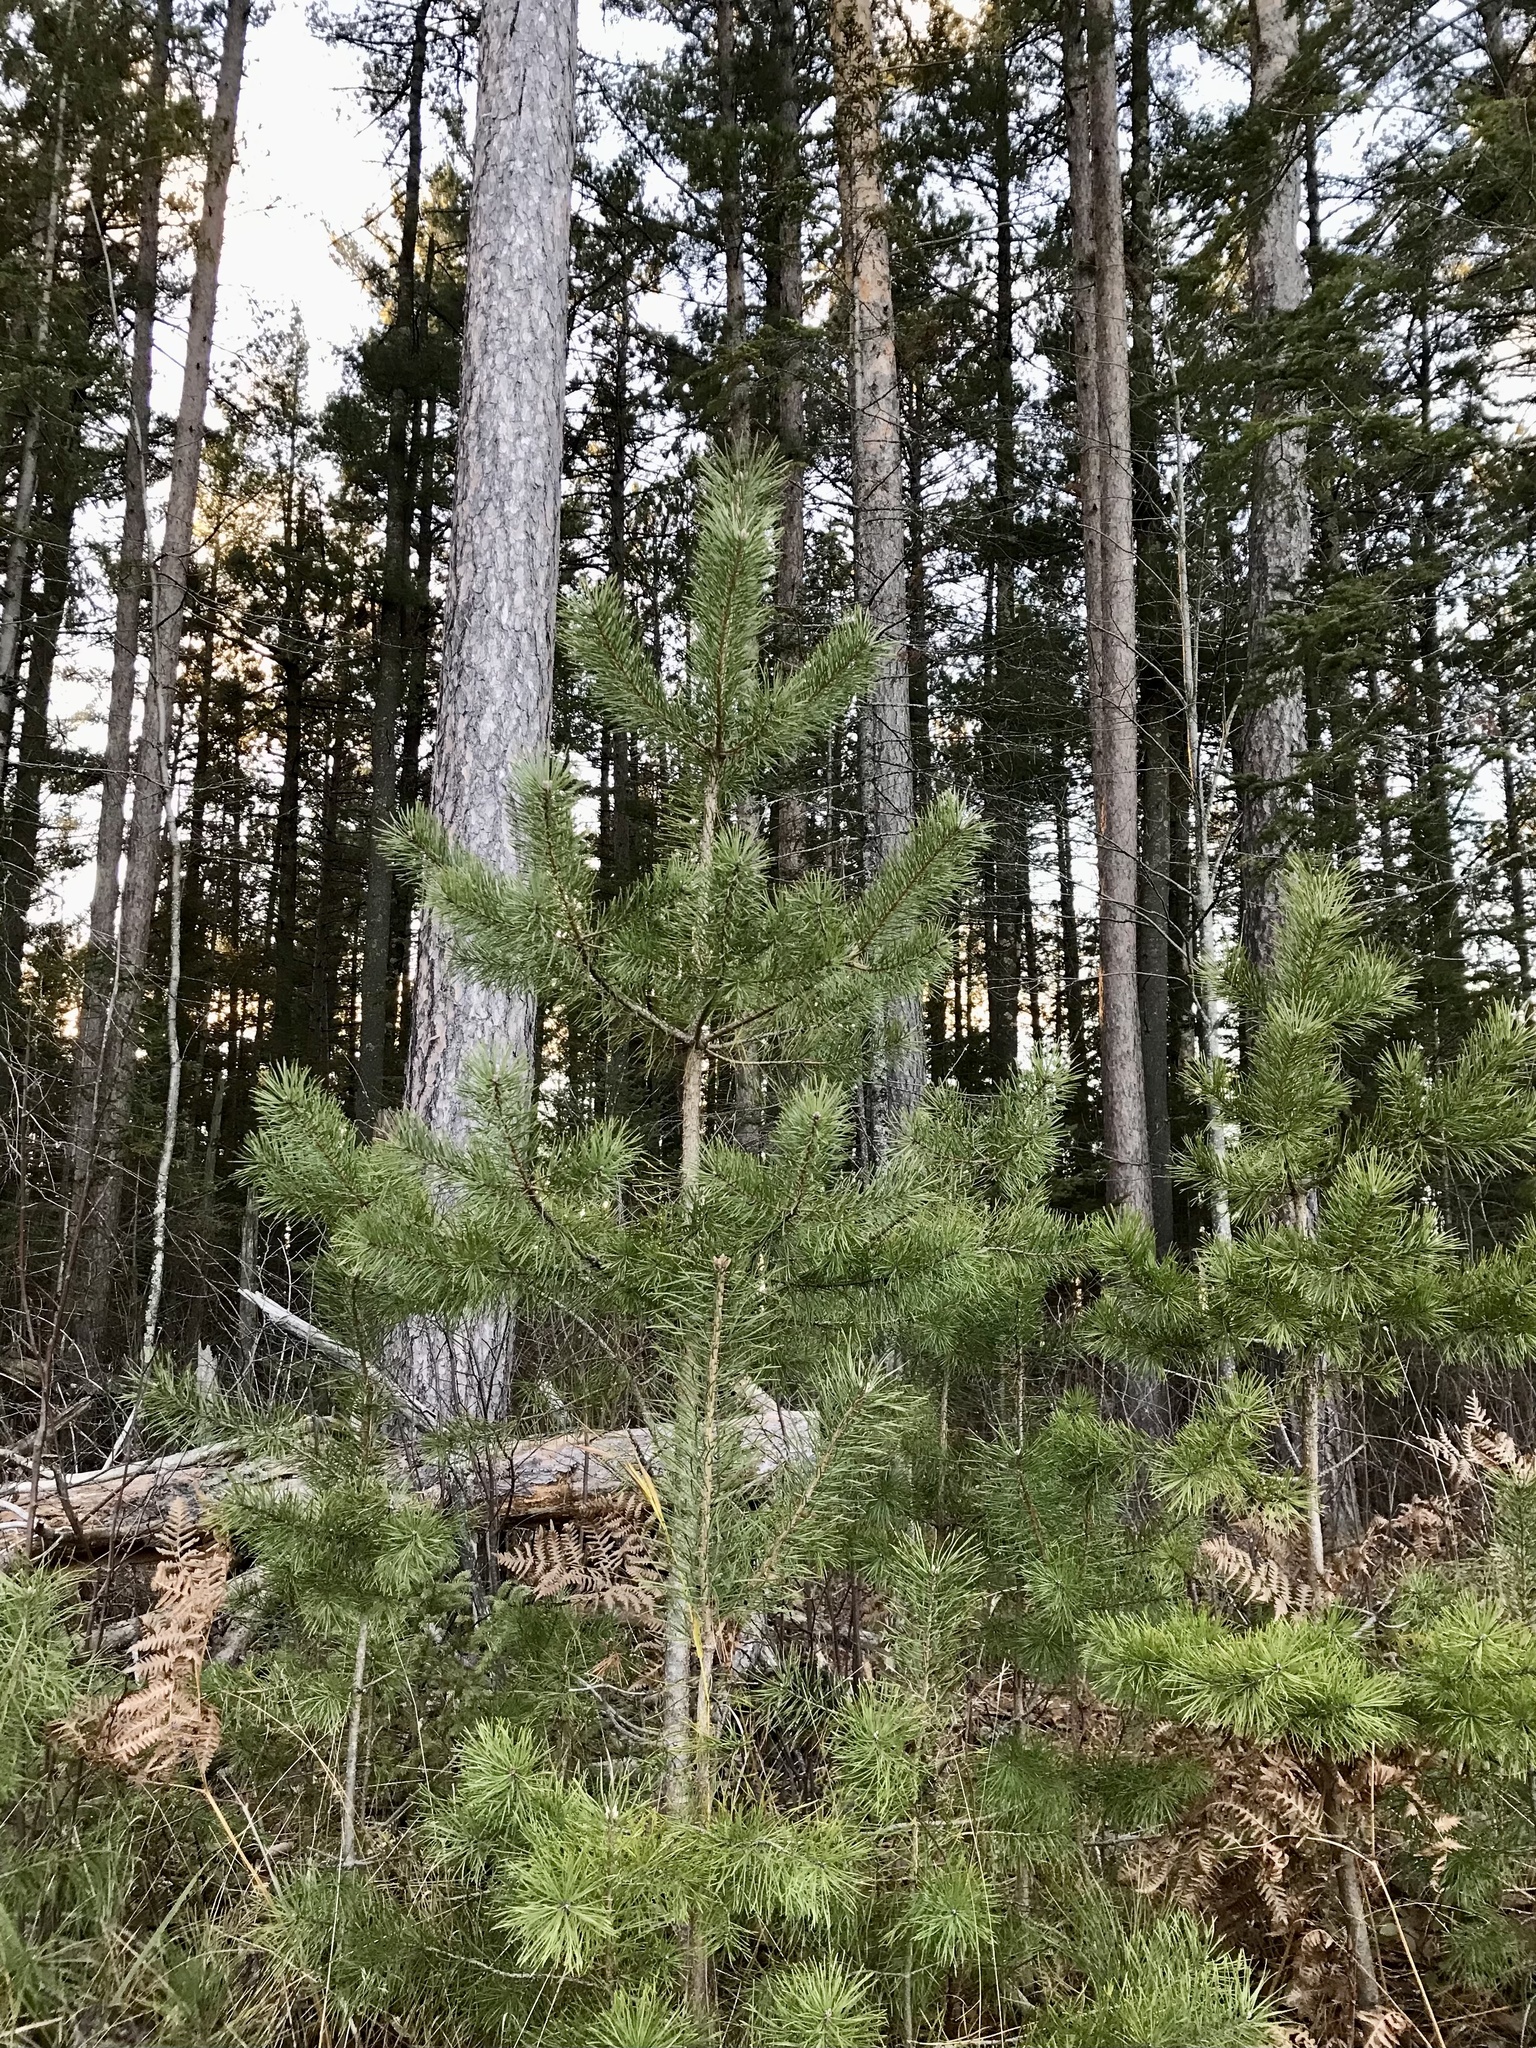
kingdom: Plantae
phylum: Tracheophyta
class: Pinopsida
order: Pinales
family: Pinaceae
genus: Pinus
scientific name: Pinus sylvestris
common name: Scots pine
